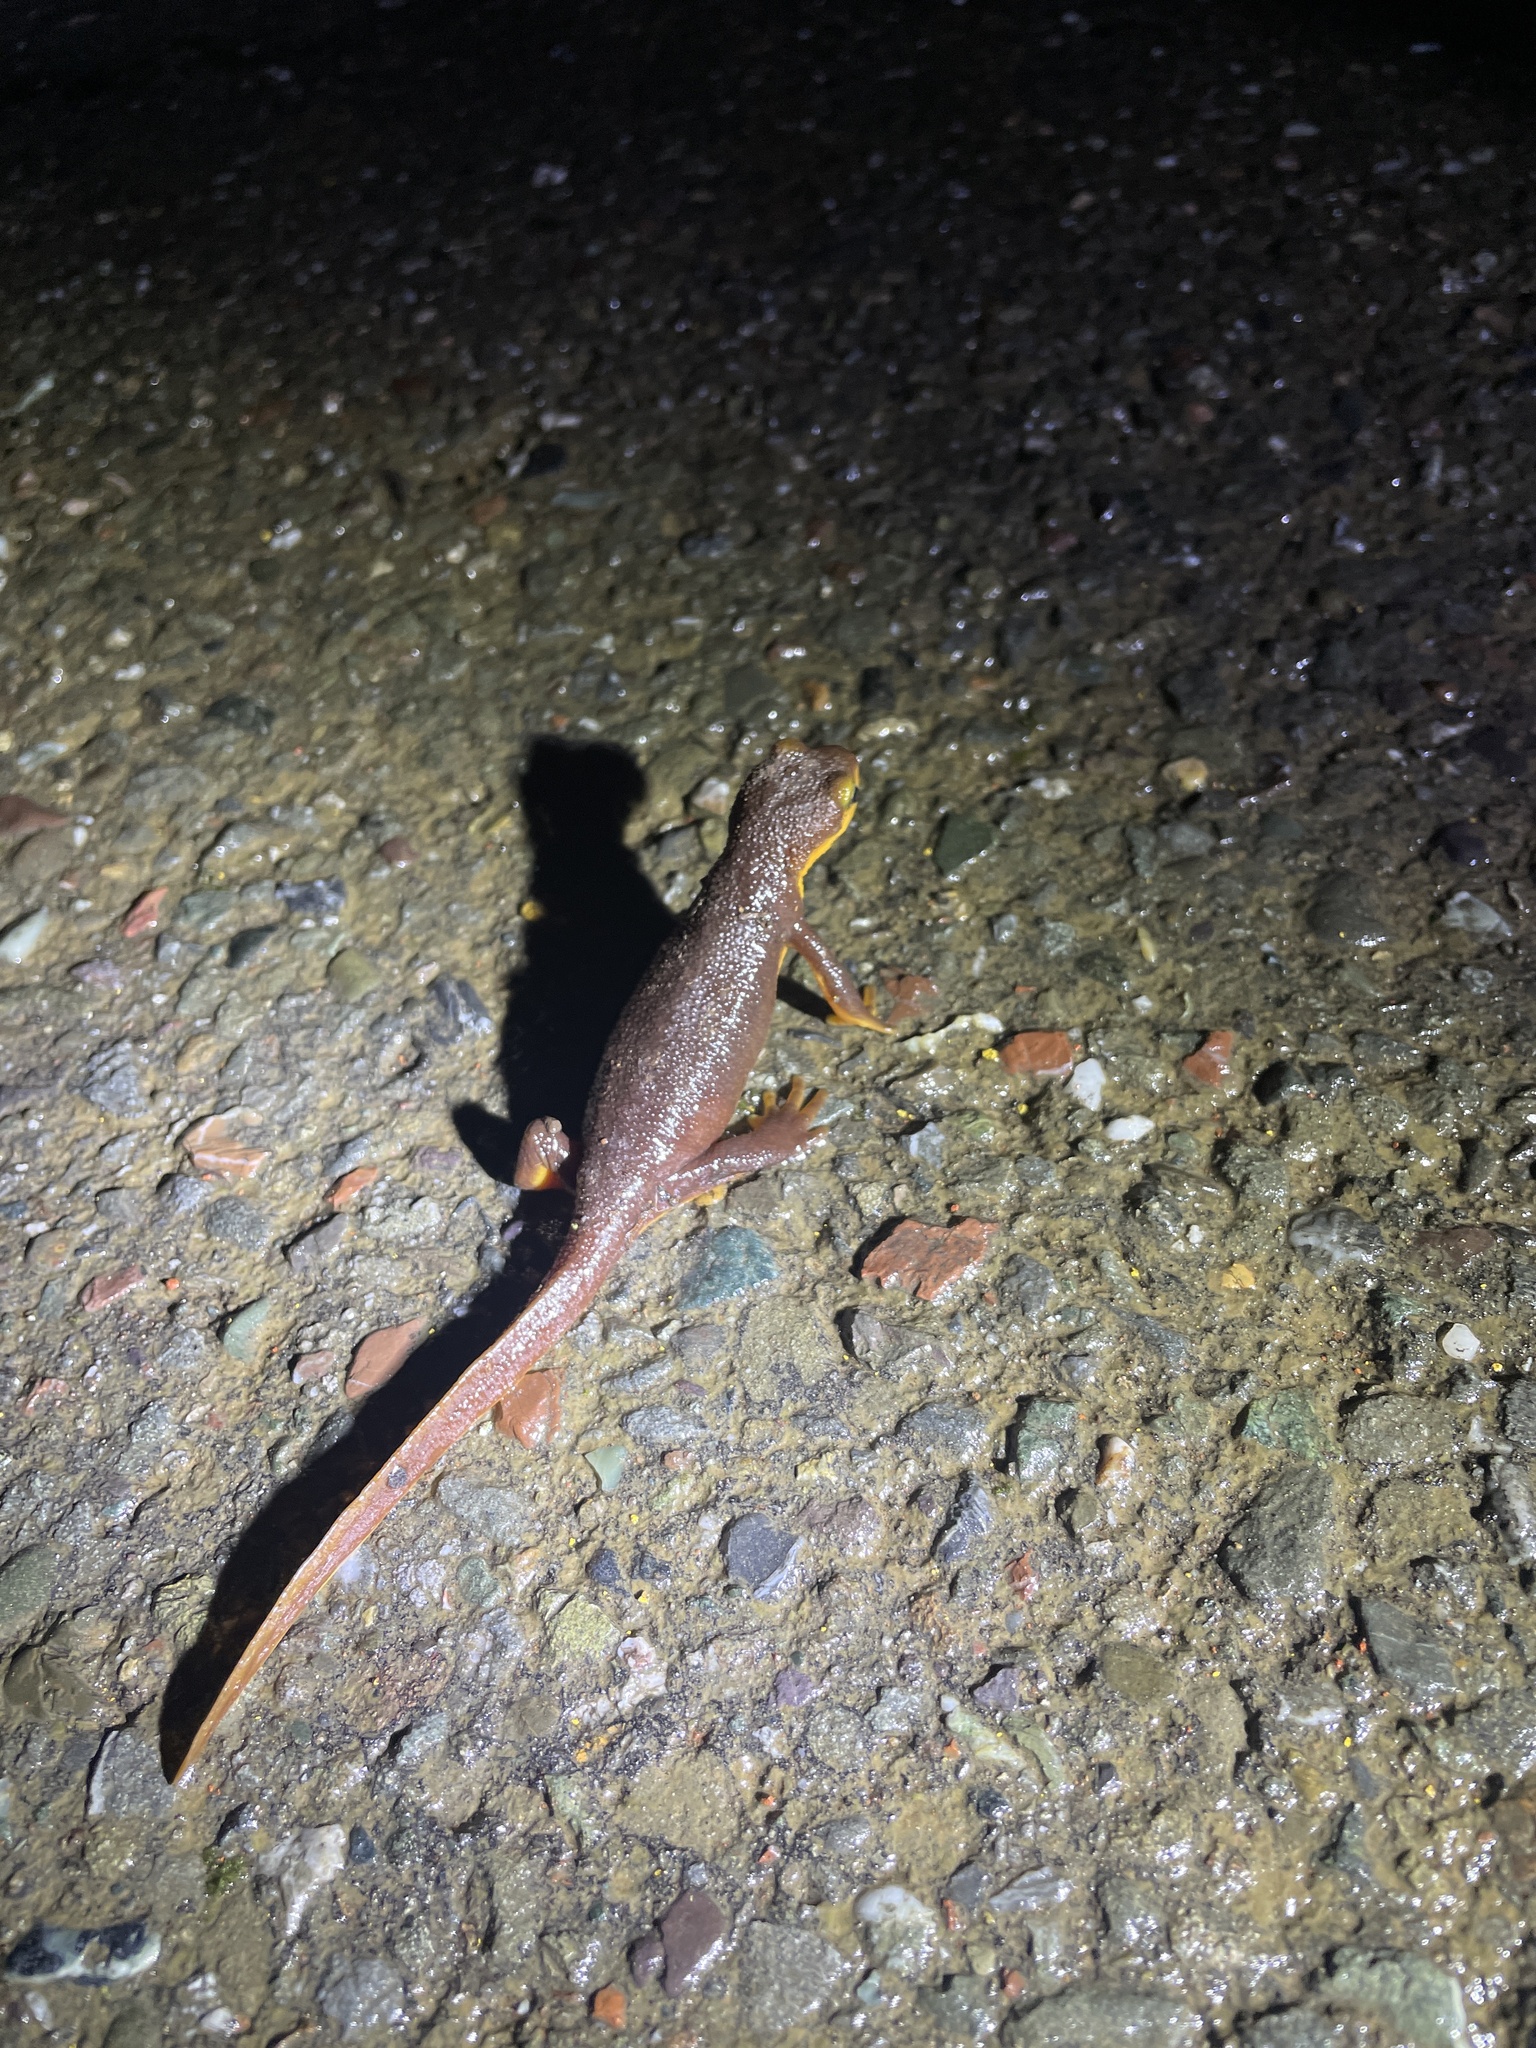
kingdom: Animalia
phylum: Chordata
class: Amphibia
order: Caudata
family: Salamandridae
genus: Taricha
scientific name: Taricha torosa
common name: California newt
